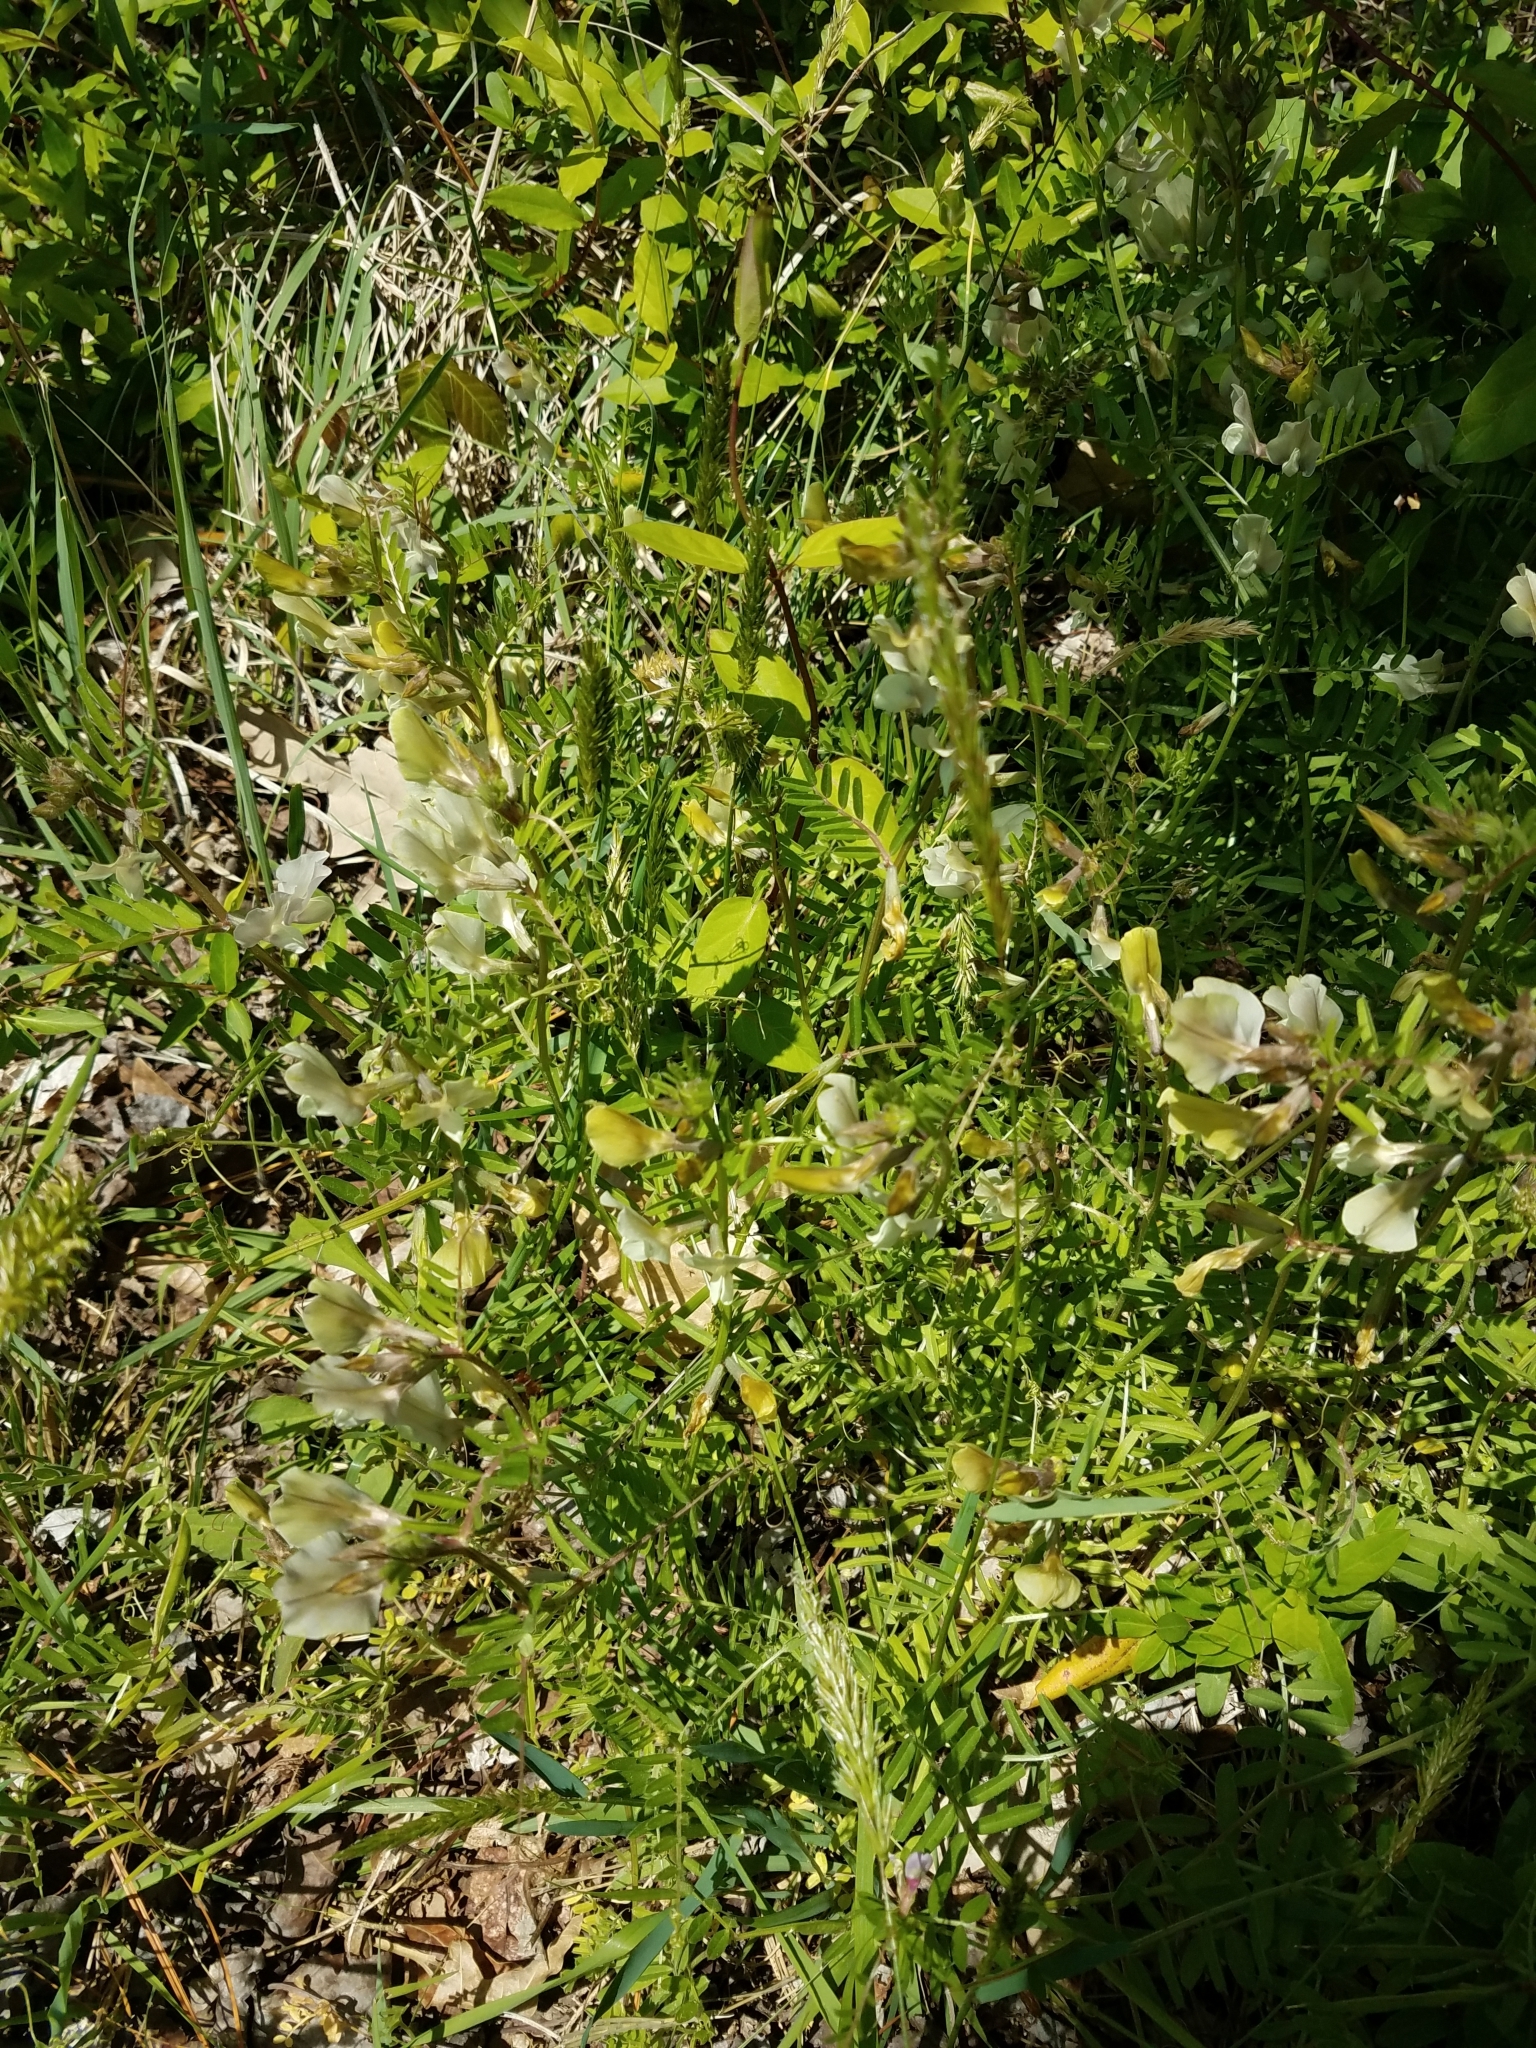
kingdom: Plantae
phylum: Tracheophyta
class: Magnoliopsida
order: Fabales
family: Fabaceae
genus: Vicia
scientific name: Vicia grandiflora
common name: Large yellow vetch
